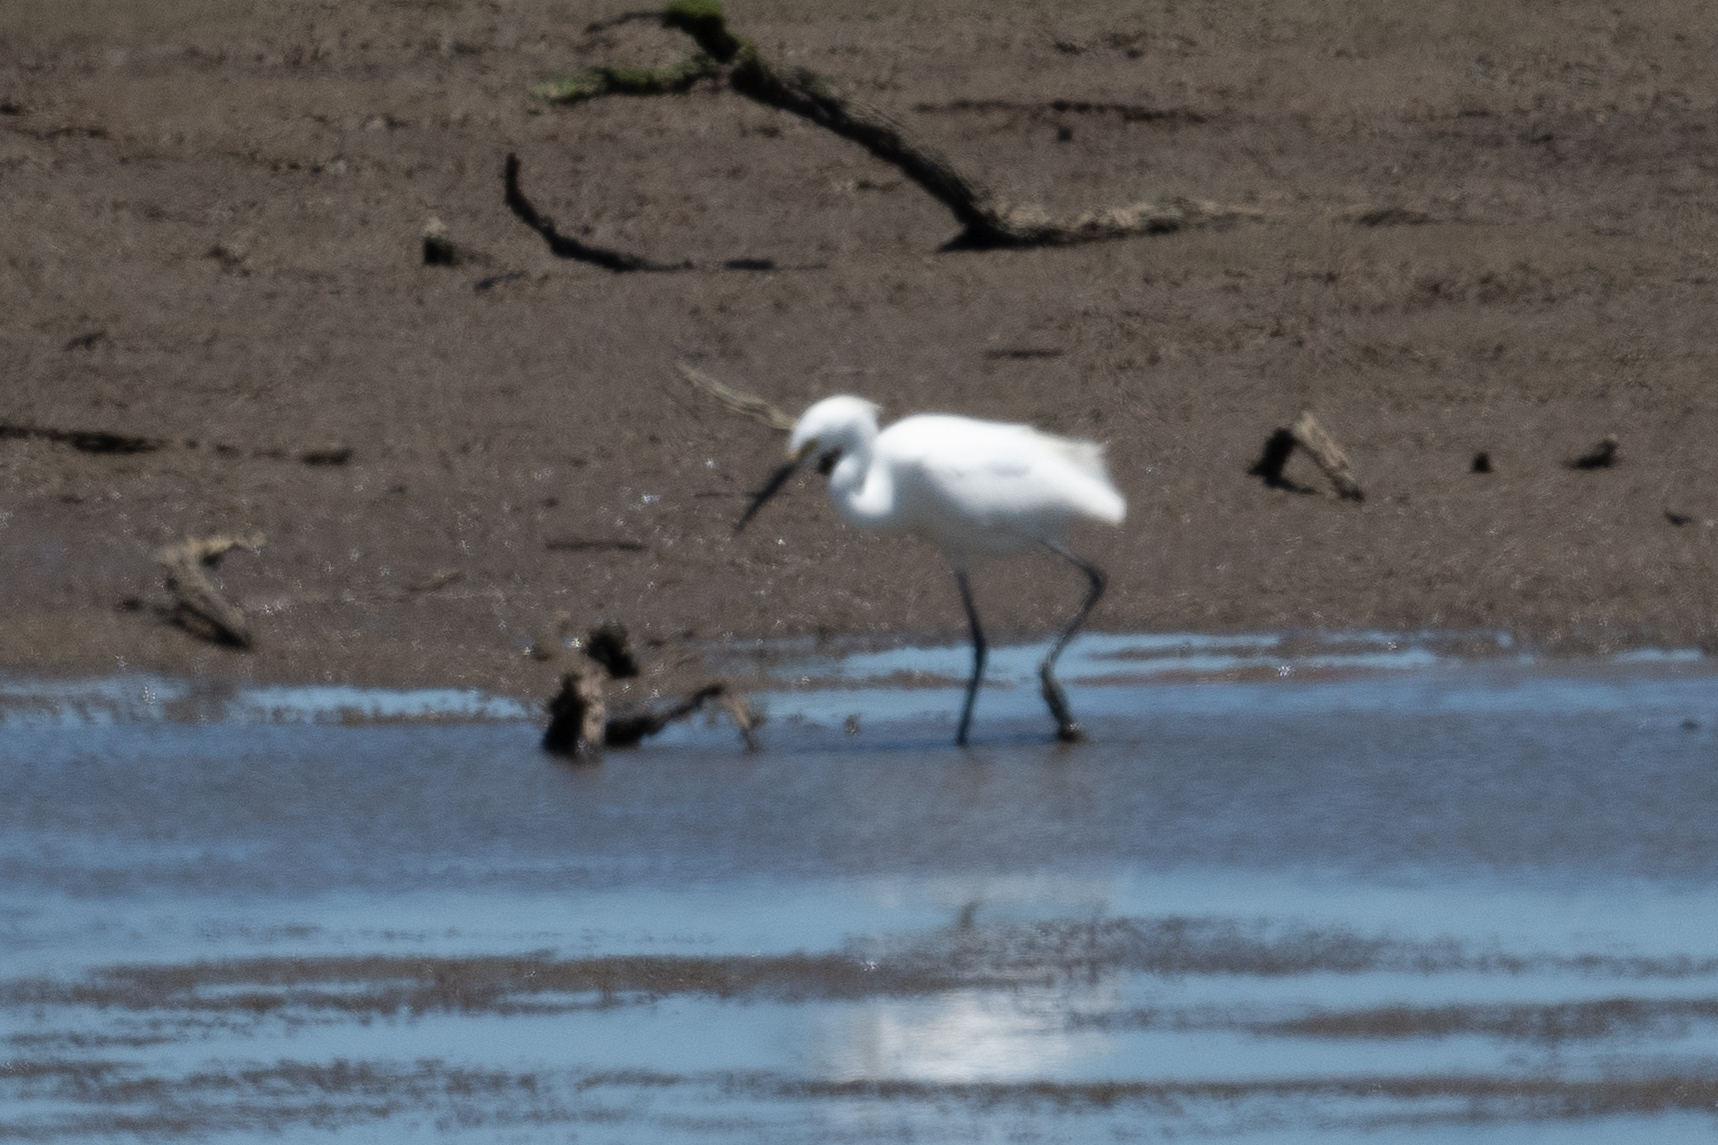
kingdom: Animalia
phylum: Chordata
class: Aves
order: Pelecaniformes
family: Ardeidae
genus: Egretta
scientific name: Egretta thula
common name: Snowy egret
